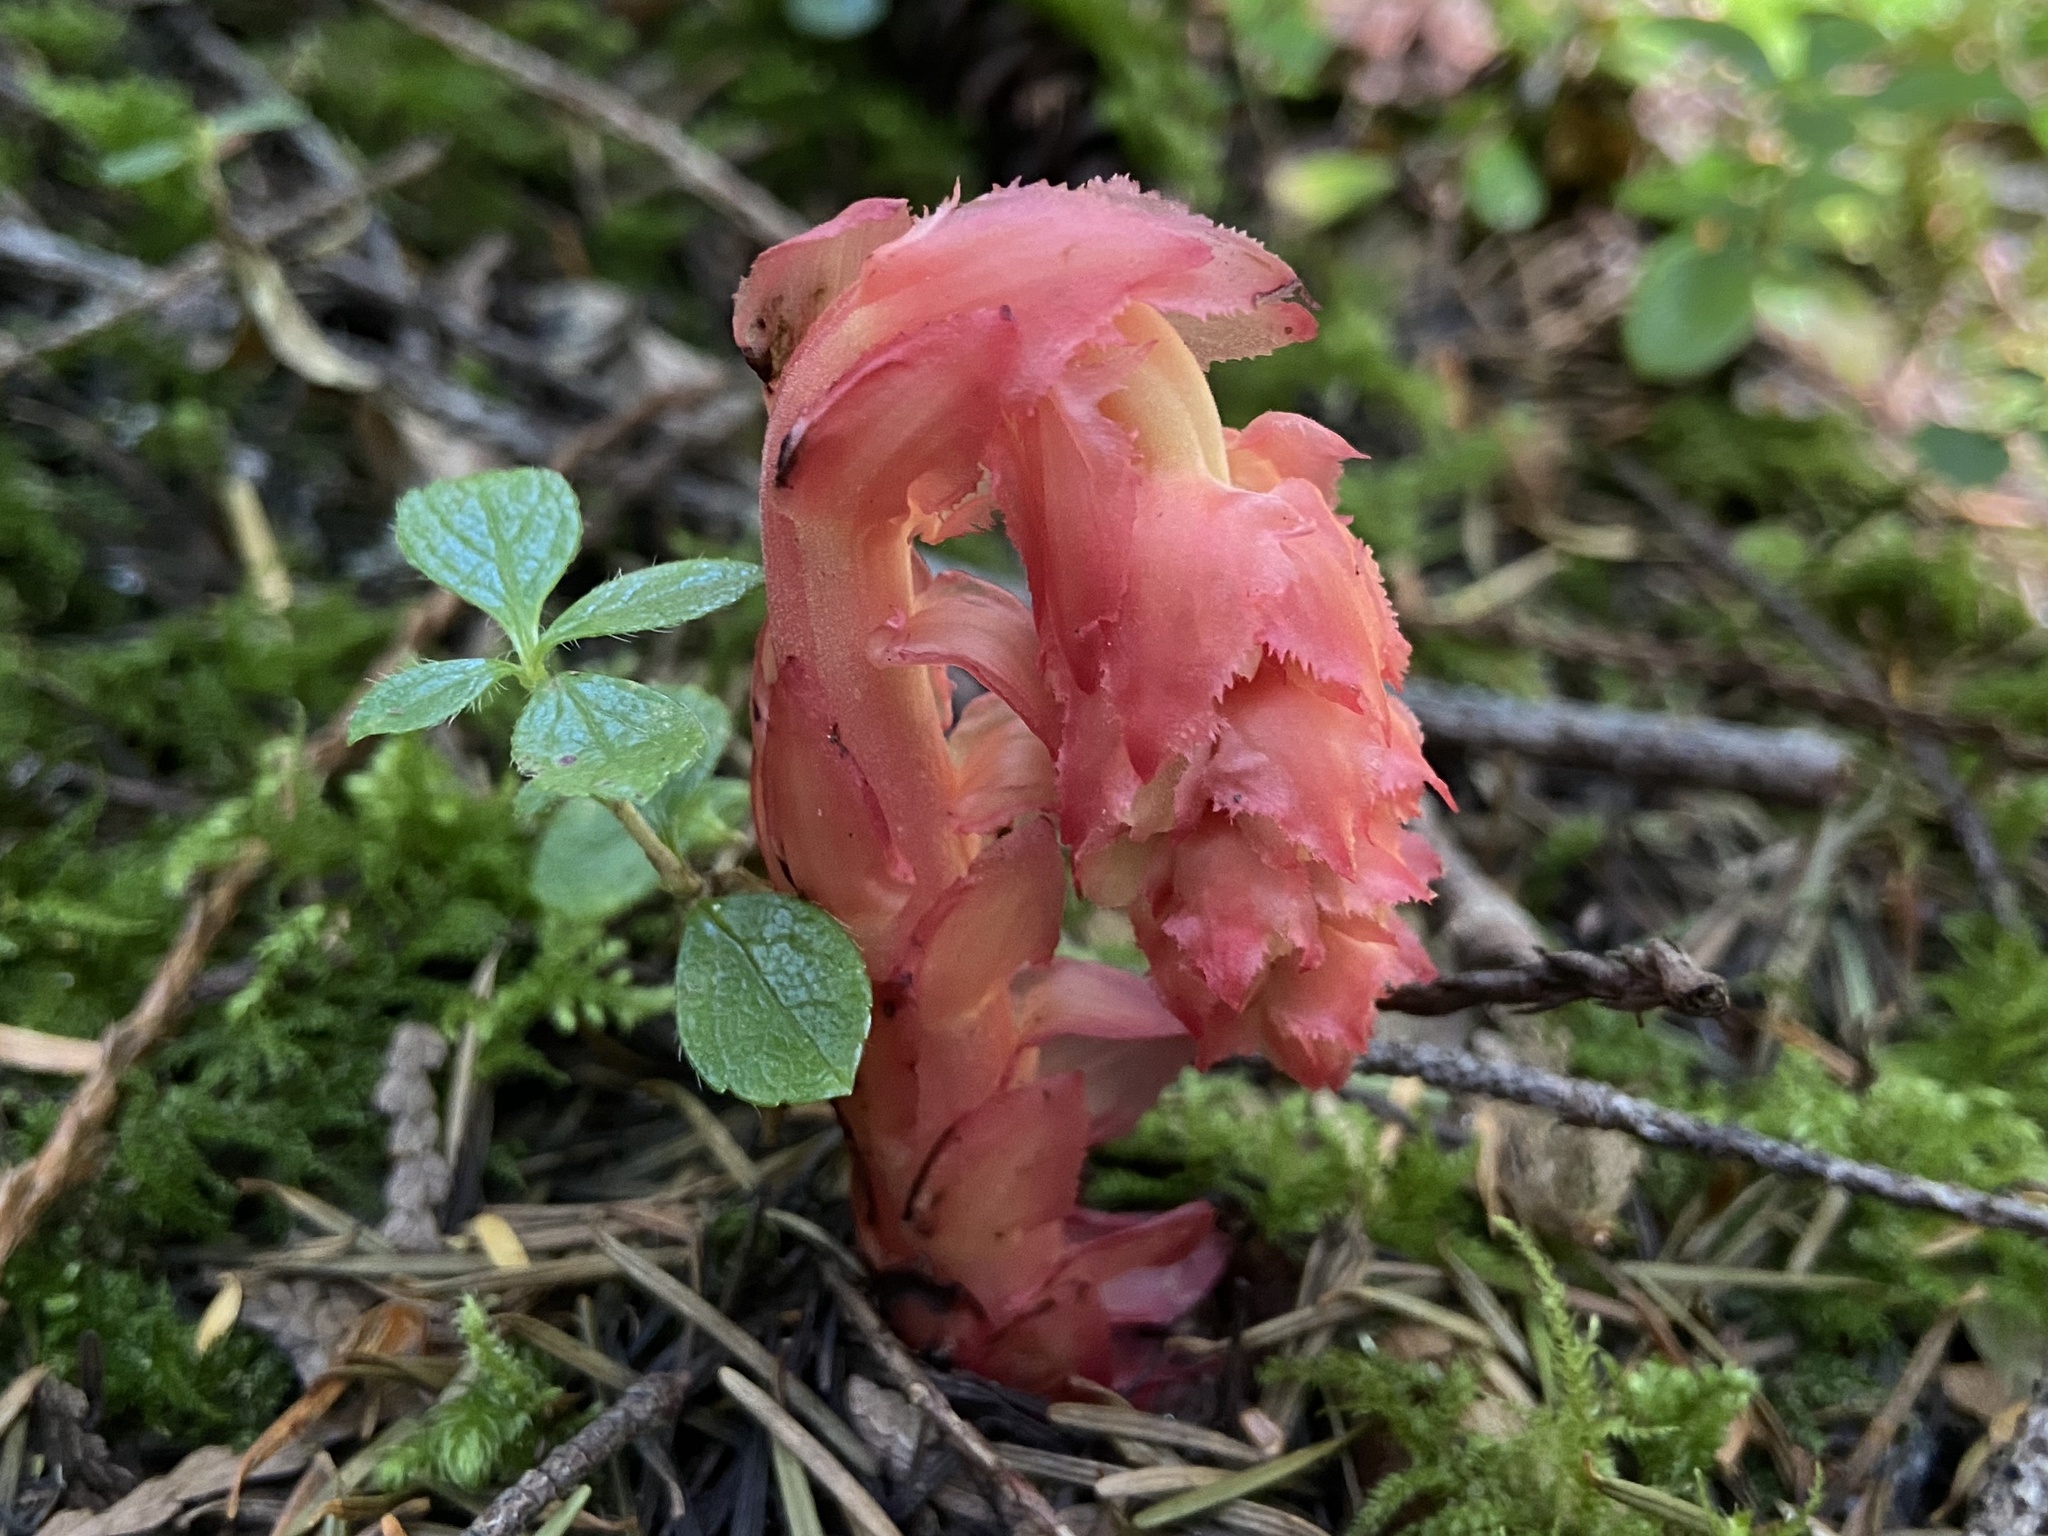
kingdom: Plantae
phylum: Tracheophyta
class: Magnoliopsida
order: Ericales
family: Ericaceae
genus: Hypopitys
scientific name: Hypopitys monotropa
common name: Yellow bird's-nest
